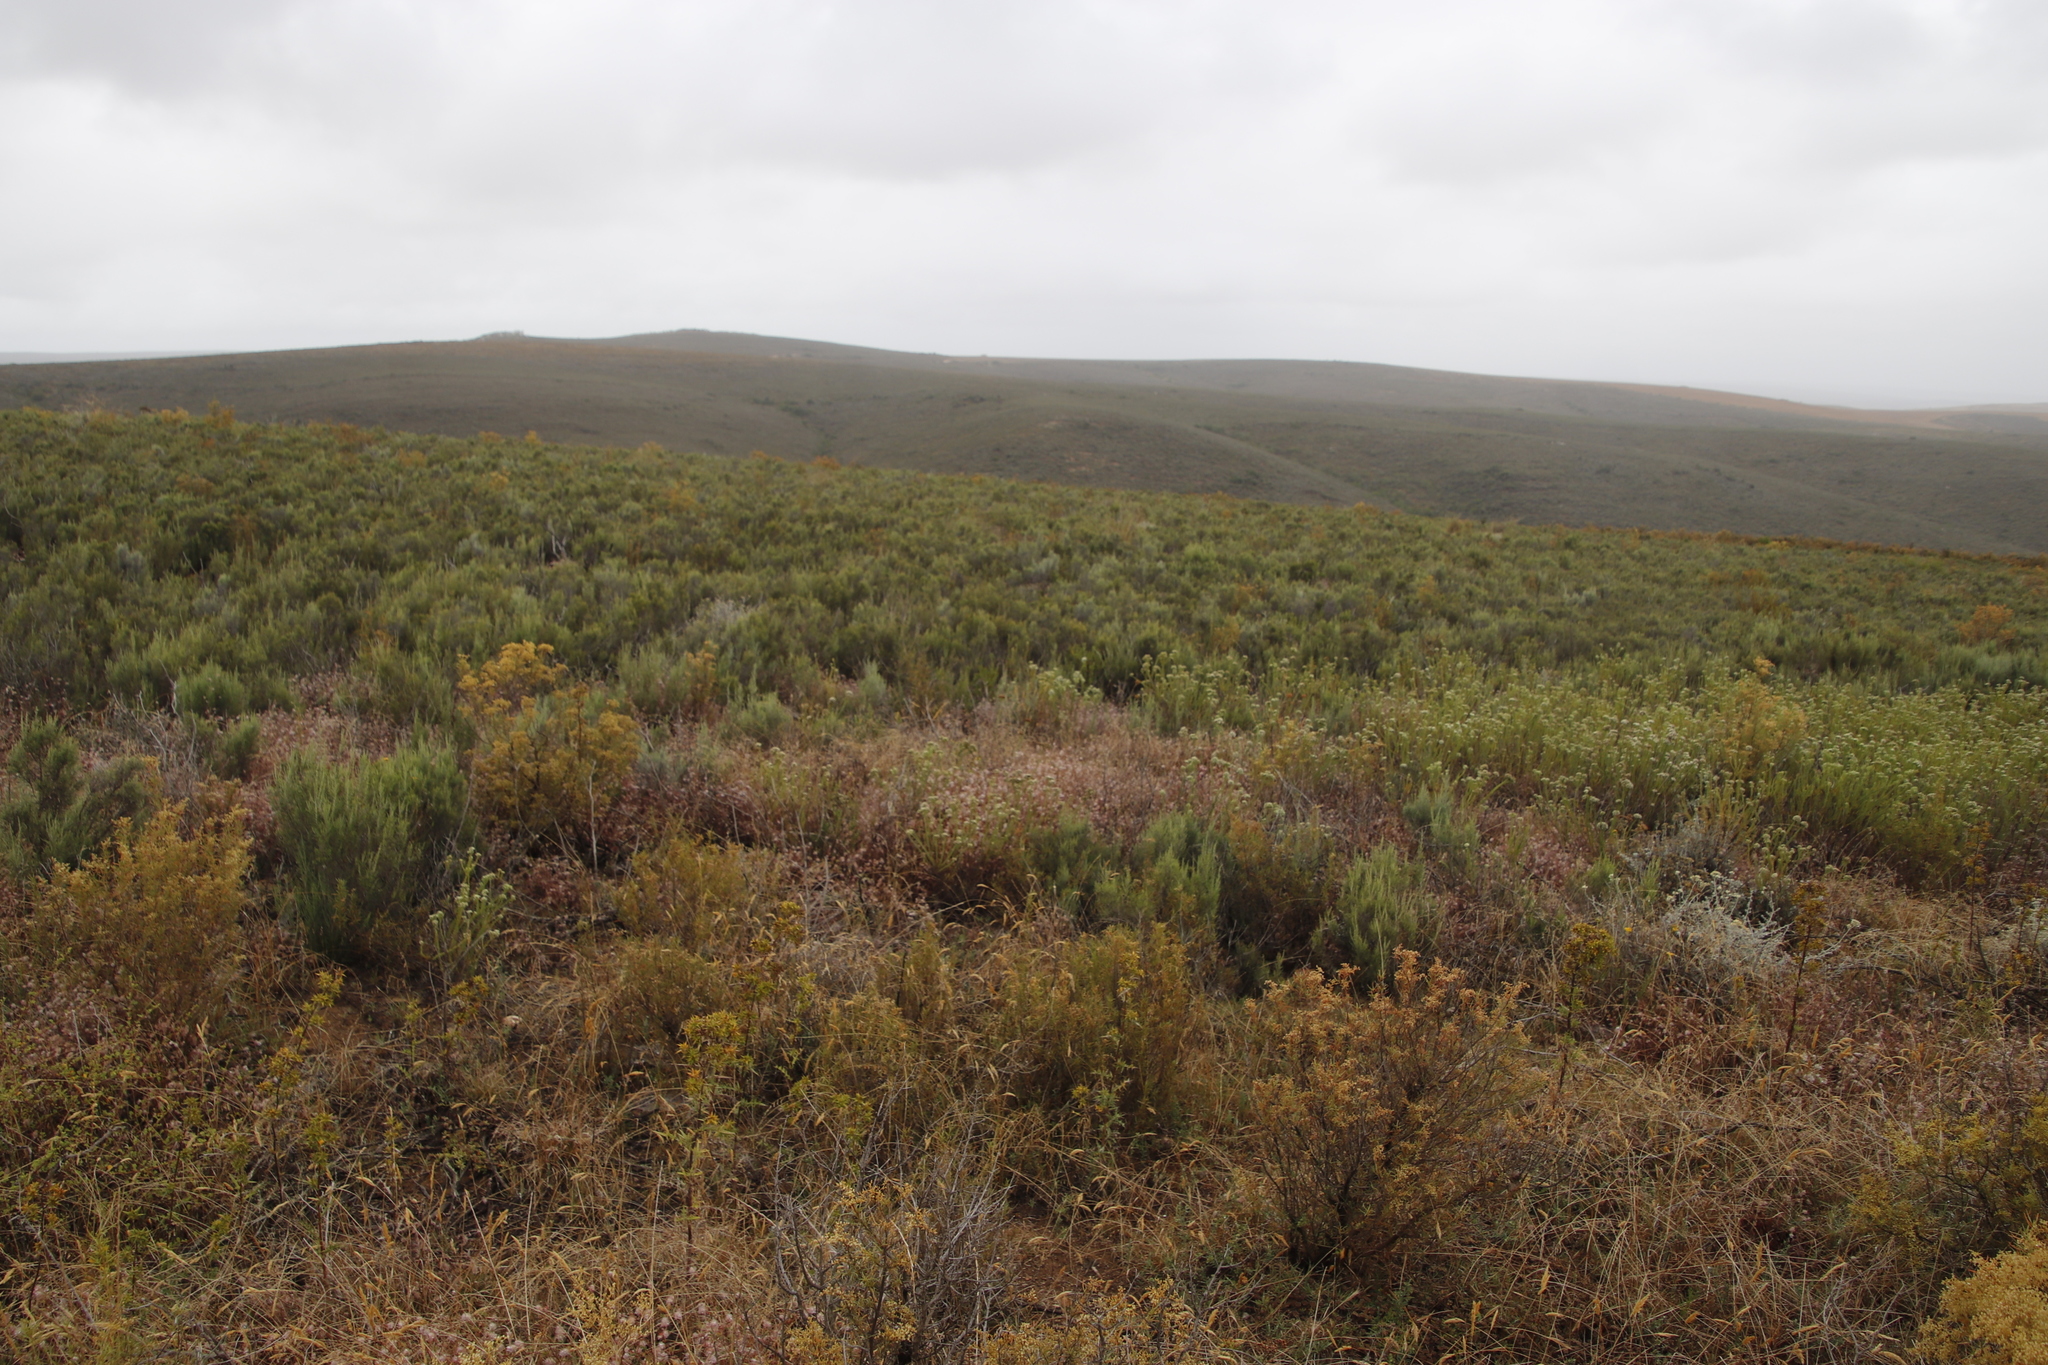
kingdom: Plantae
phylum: Tracheophyta
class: Magnoliopsida
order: Asterales
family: Asteraceae
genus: Dicerothamnus
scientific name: Dicerothamnus rhinocerotis
